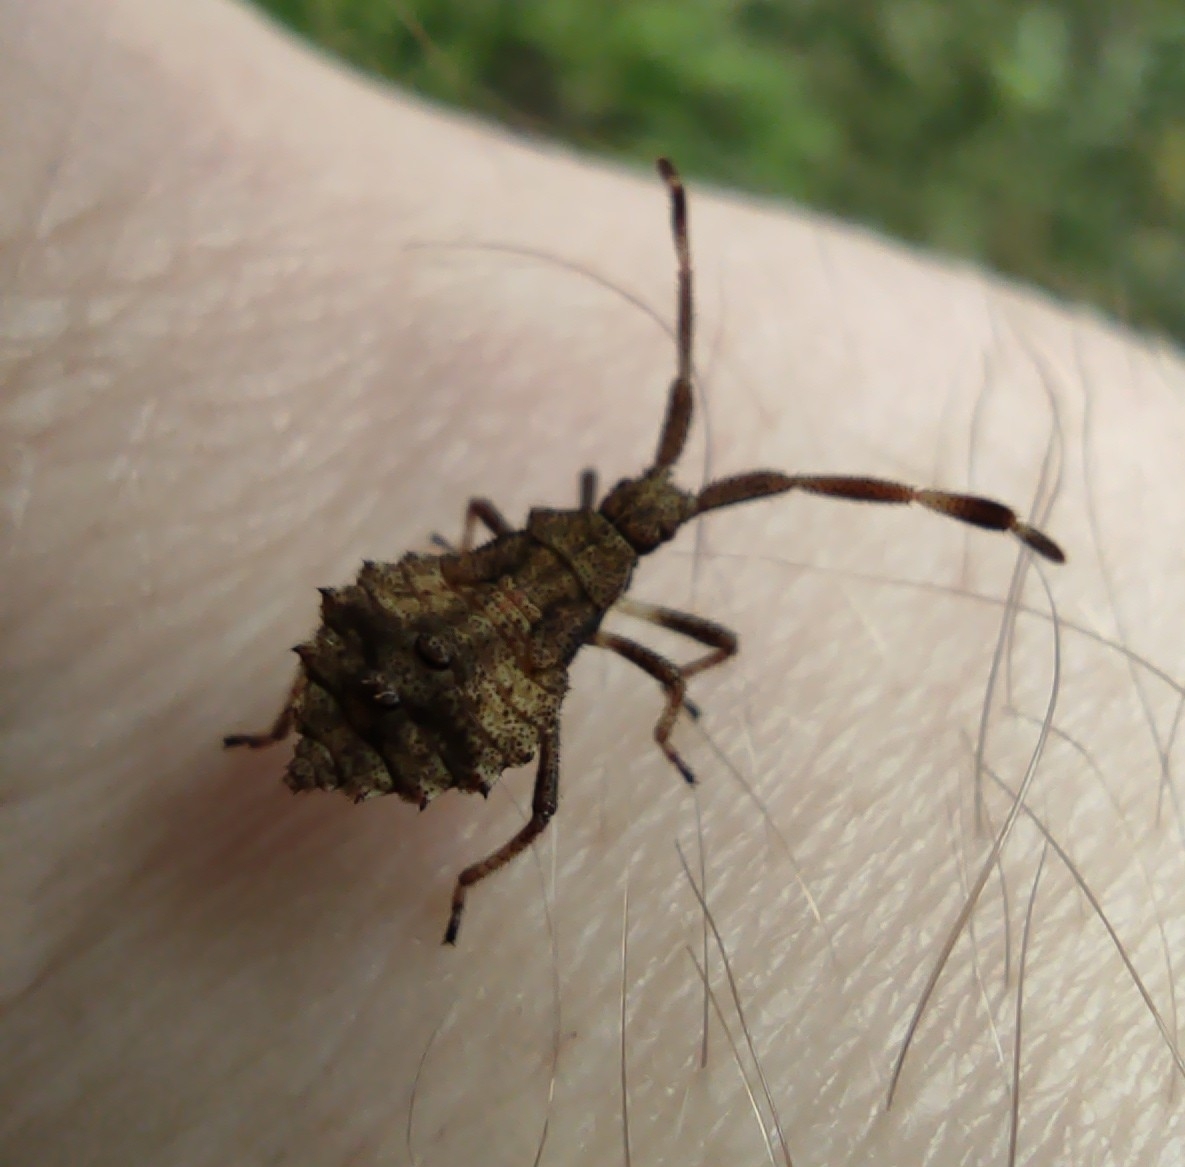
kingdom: Animalia
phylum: Arthropoda
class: Insecta
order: Hemiptera
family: Coreidae
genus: Coreus
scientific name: Coreus marginatus
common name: Dock bug
